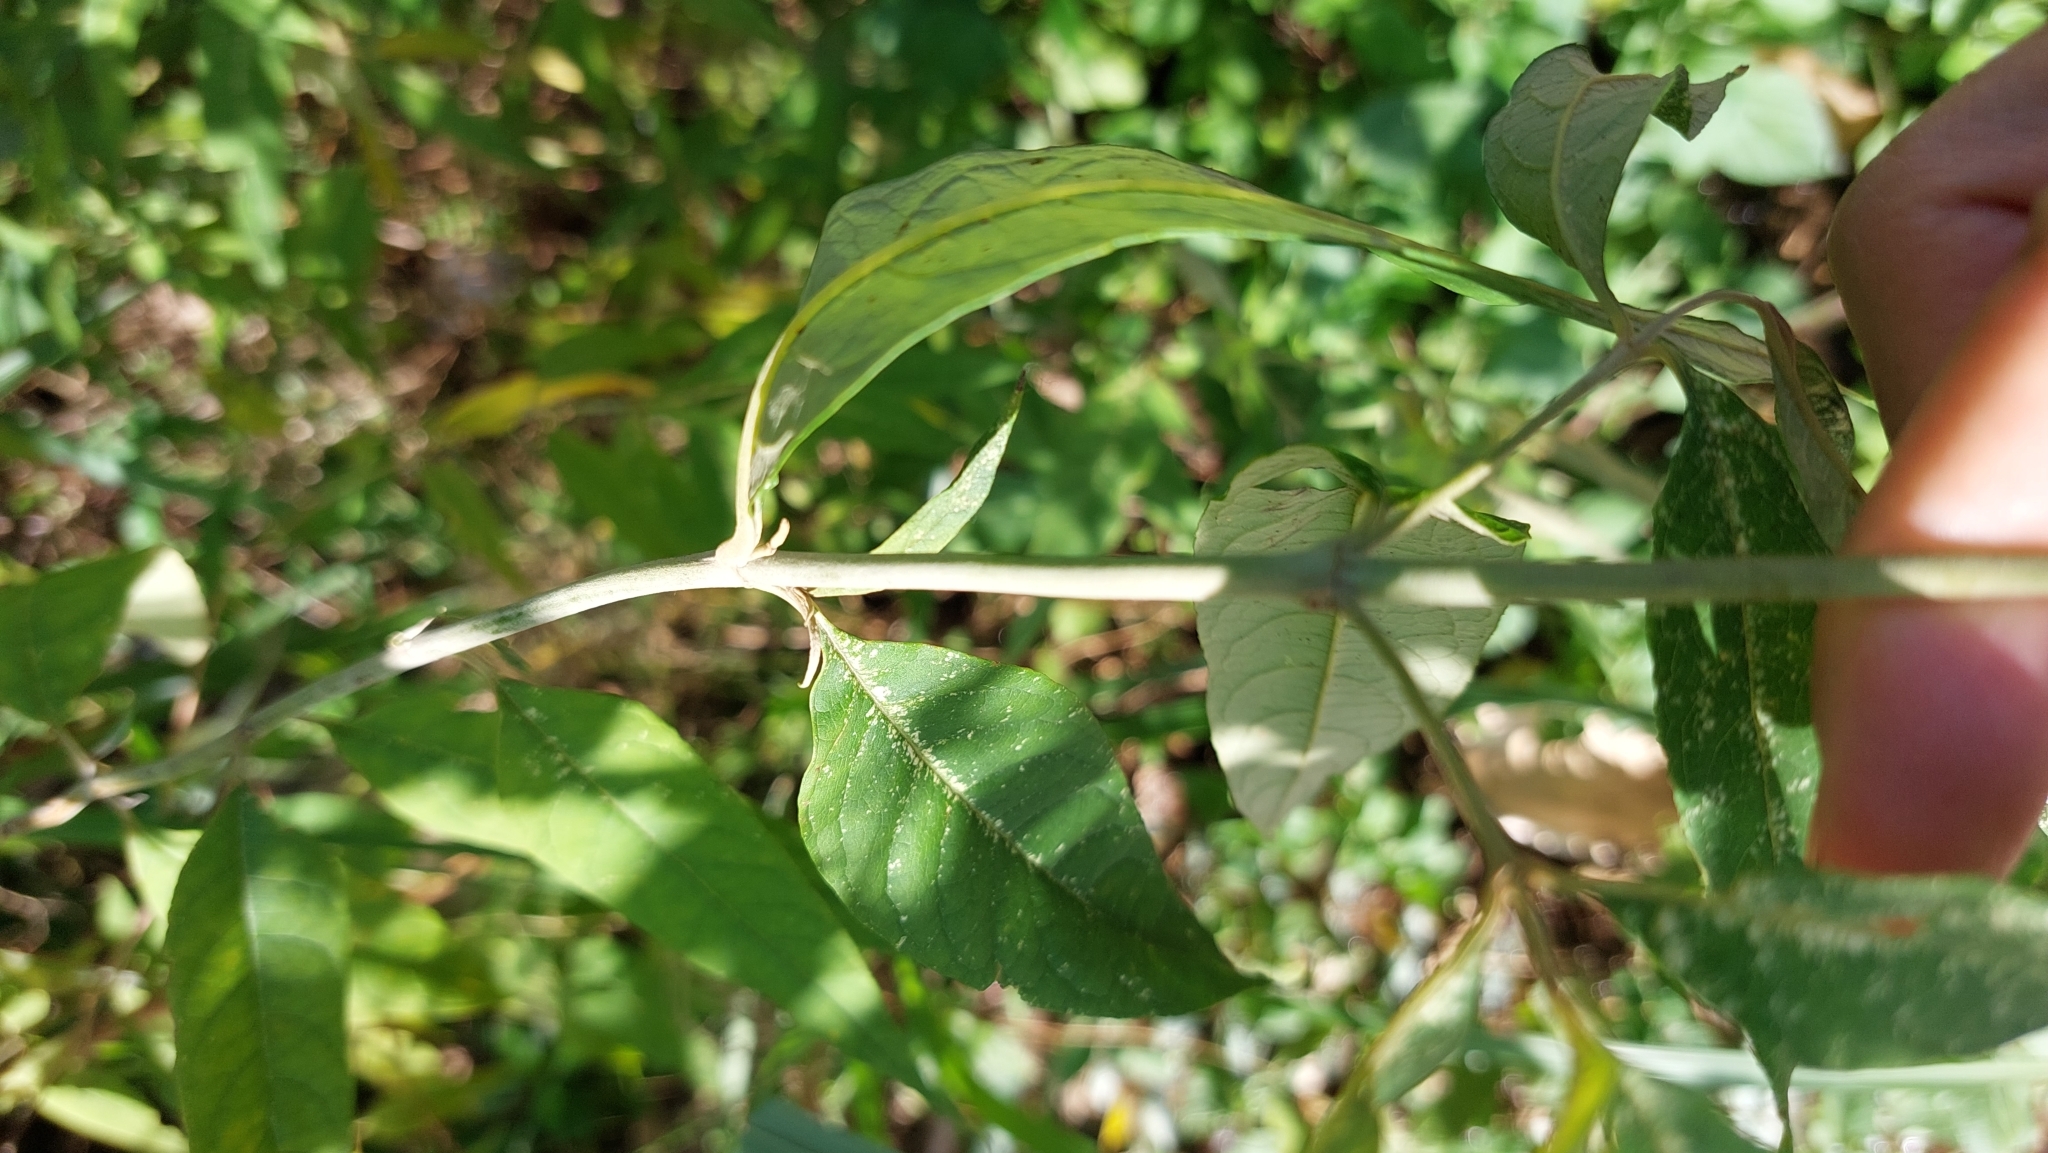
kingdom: Plantae
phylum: Tracheophyta
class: Magnoliopsida
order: Lamiales
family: Scrophulariaceae
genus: Buddleja
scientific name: Buddleja asiatica
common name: Dog tail
